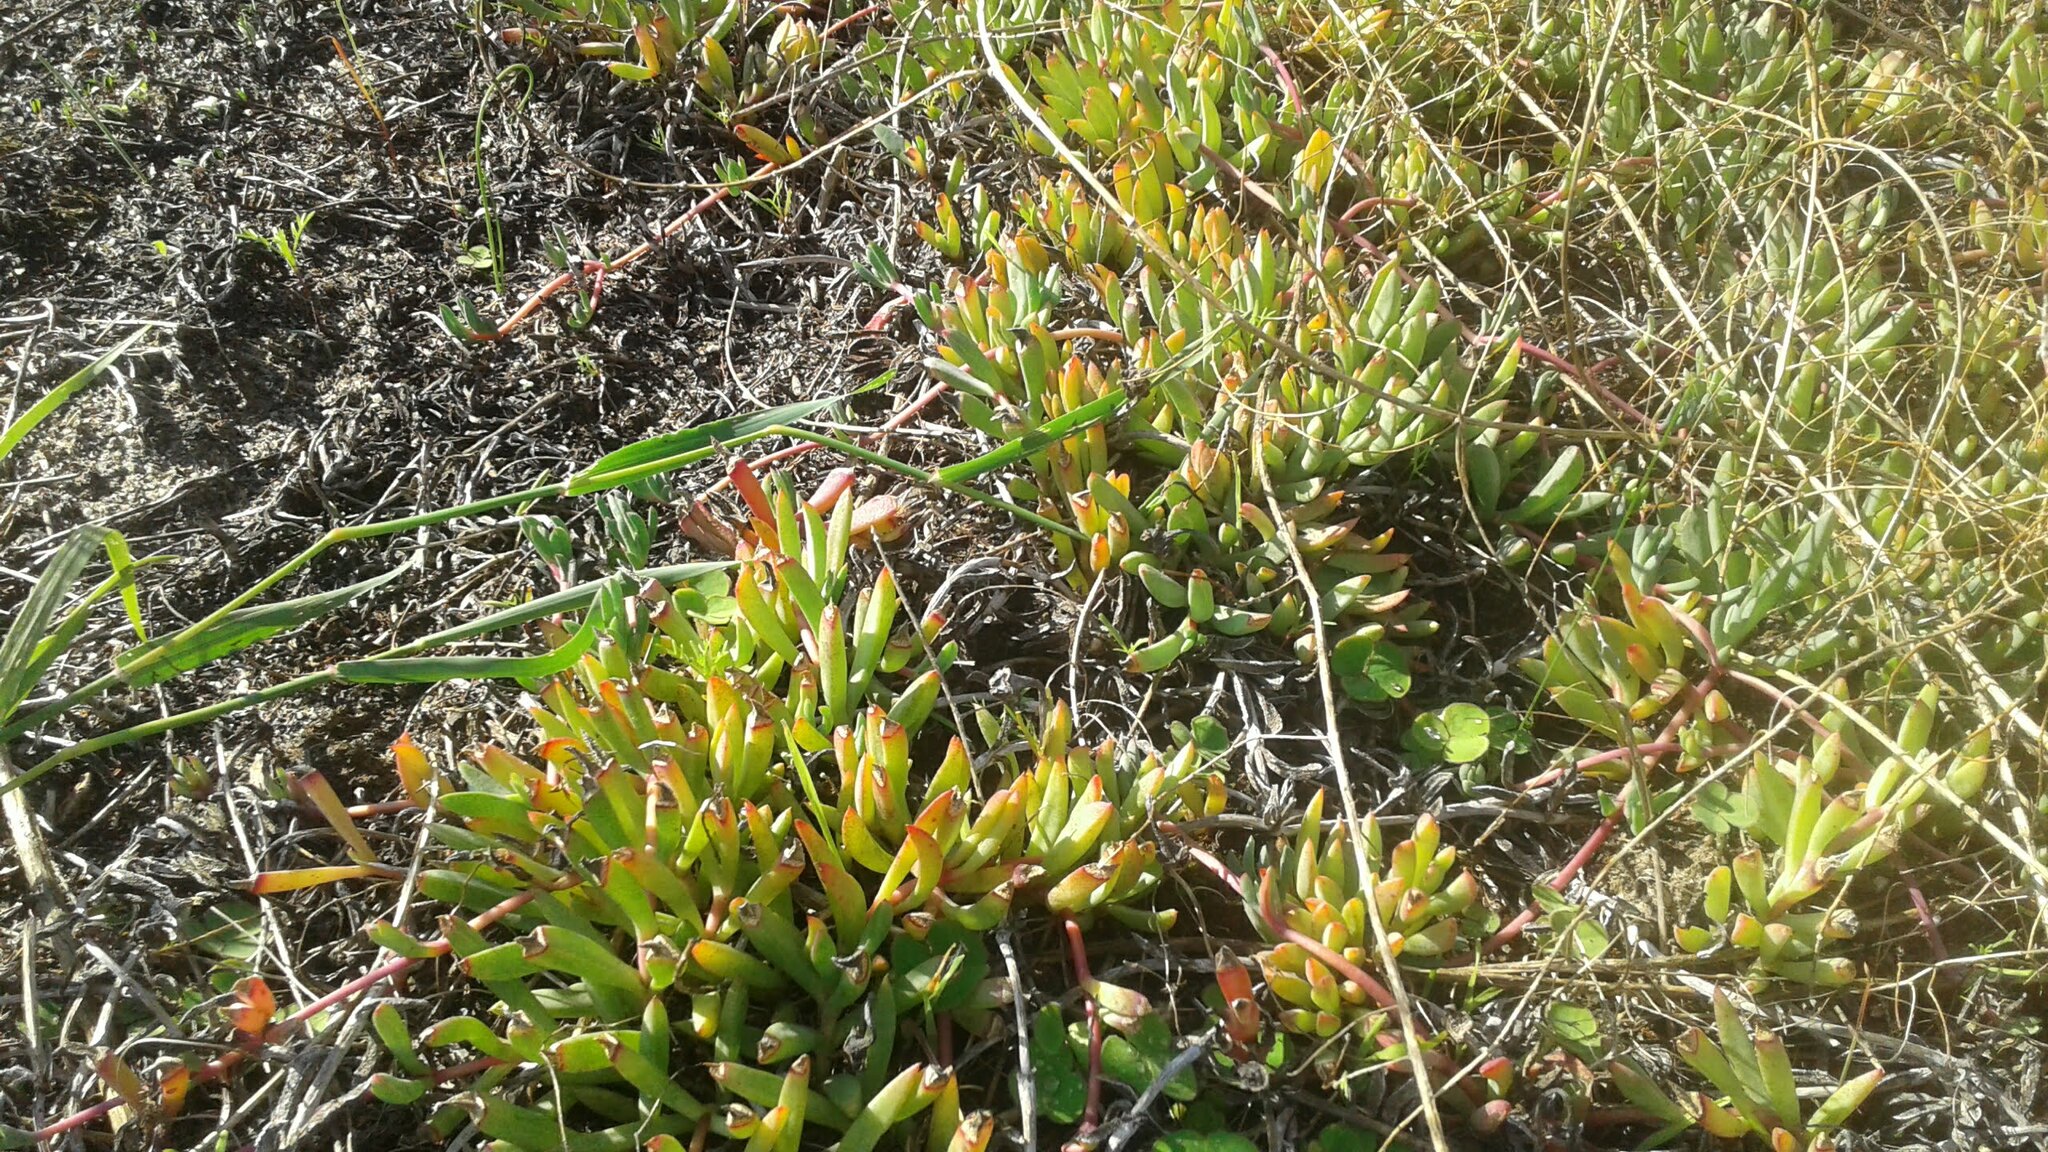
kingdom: Plantae
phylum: Tracheophyta
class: Magnoliopsida
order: Caryophyllales
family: Aizoaceae
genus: Lampranthus
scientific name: Lampranthus reptans
